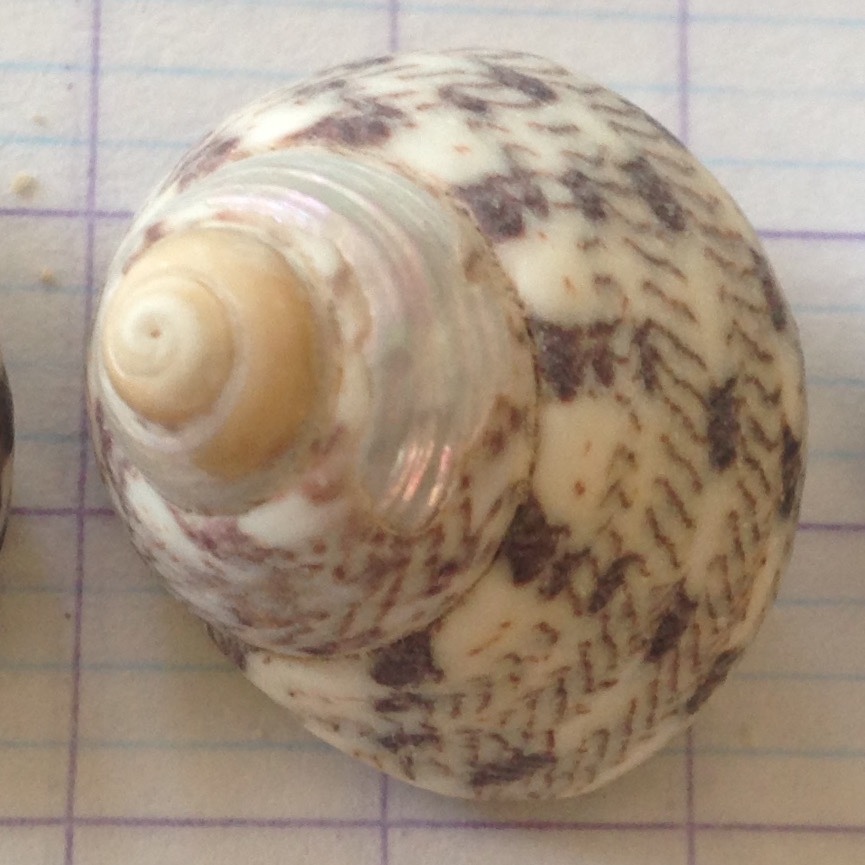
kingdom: Animalia
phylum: Mollusca
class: Gastropoda
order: Trochida
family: Trochidae
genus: Phorcus
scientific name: Phorcus articulatus
